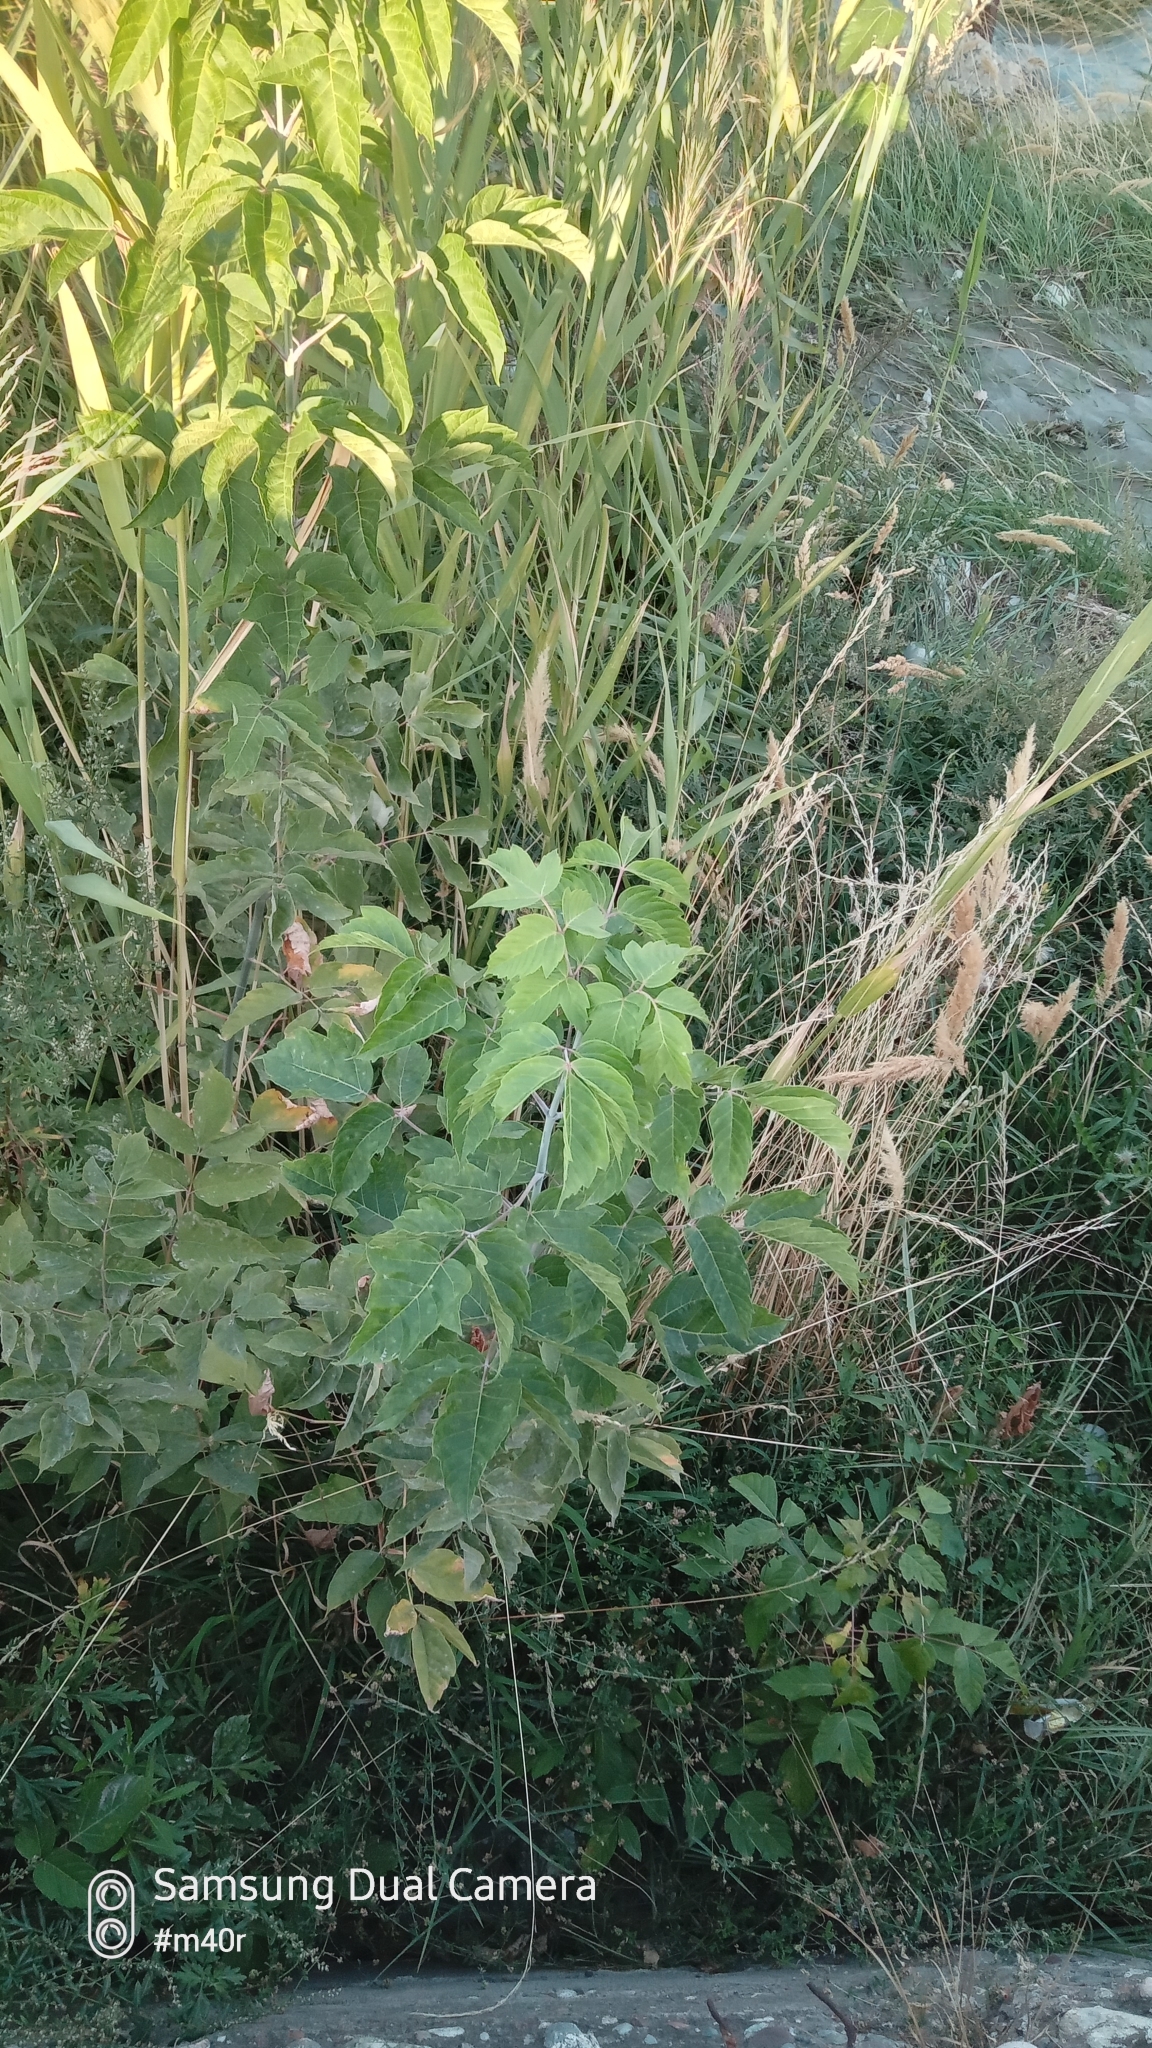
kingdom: Plantae
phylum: Tracheophyta
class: Magnoliopsida
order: Sapindales
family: Sapindaceae
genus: Acer
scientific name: Acer negundo
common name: Ashleaf maple
